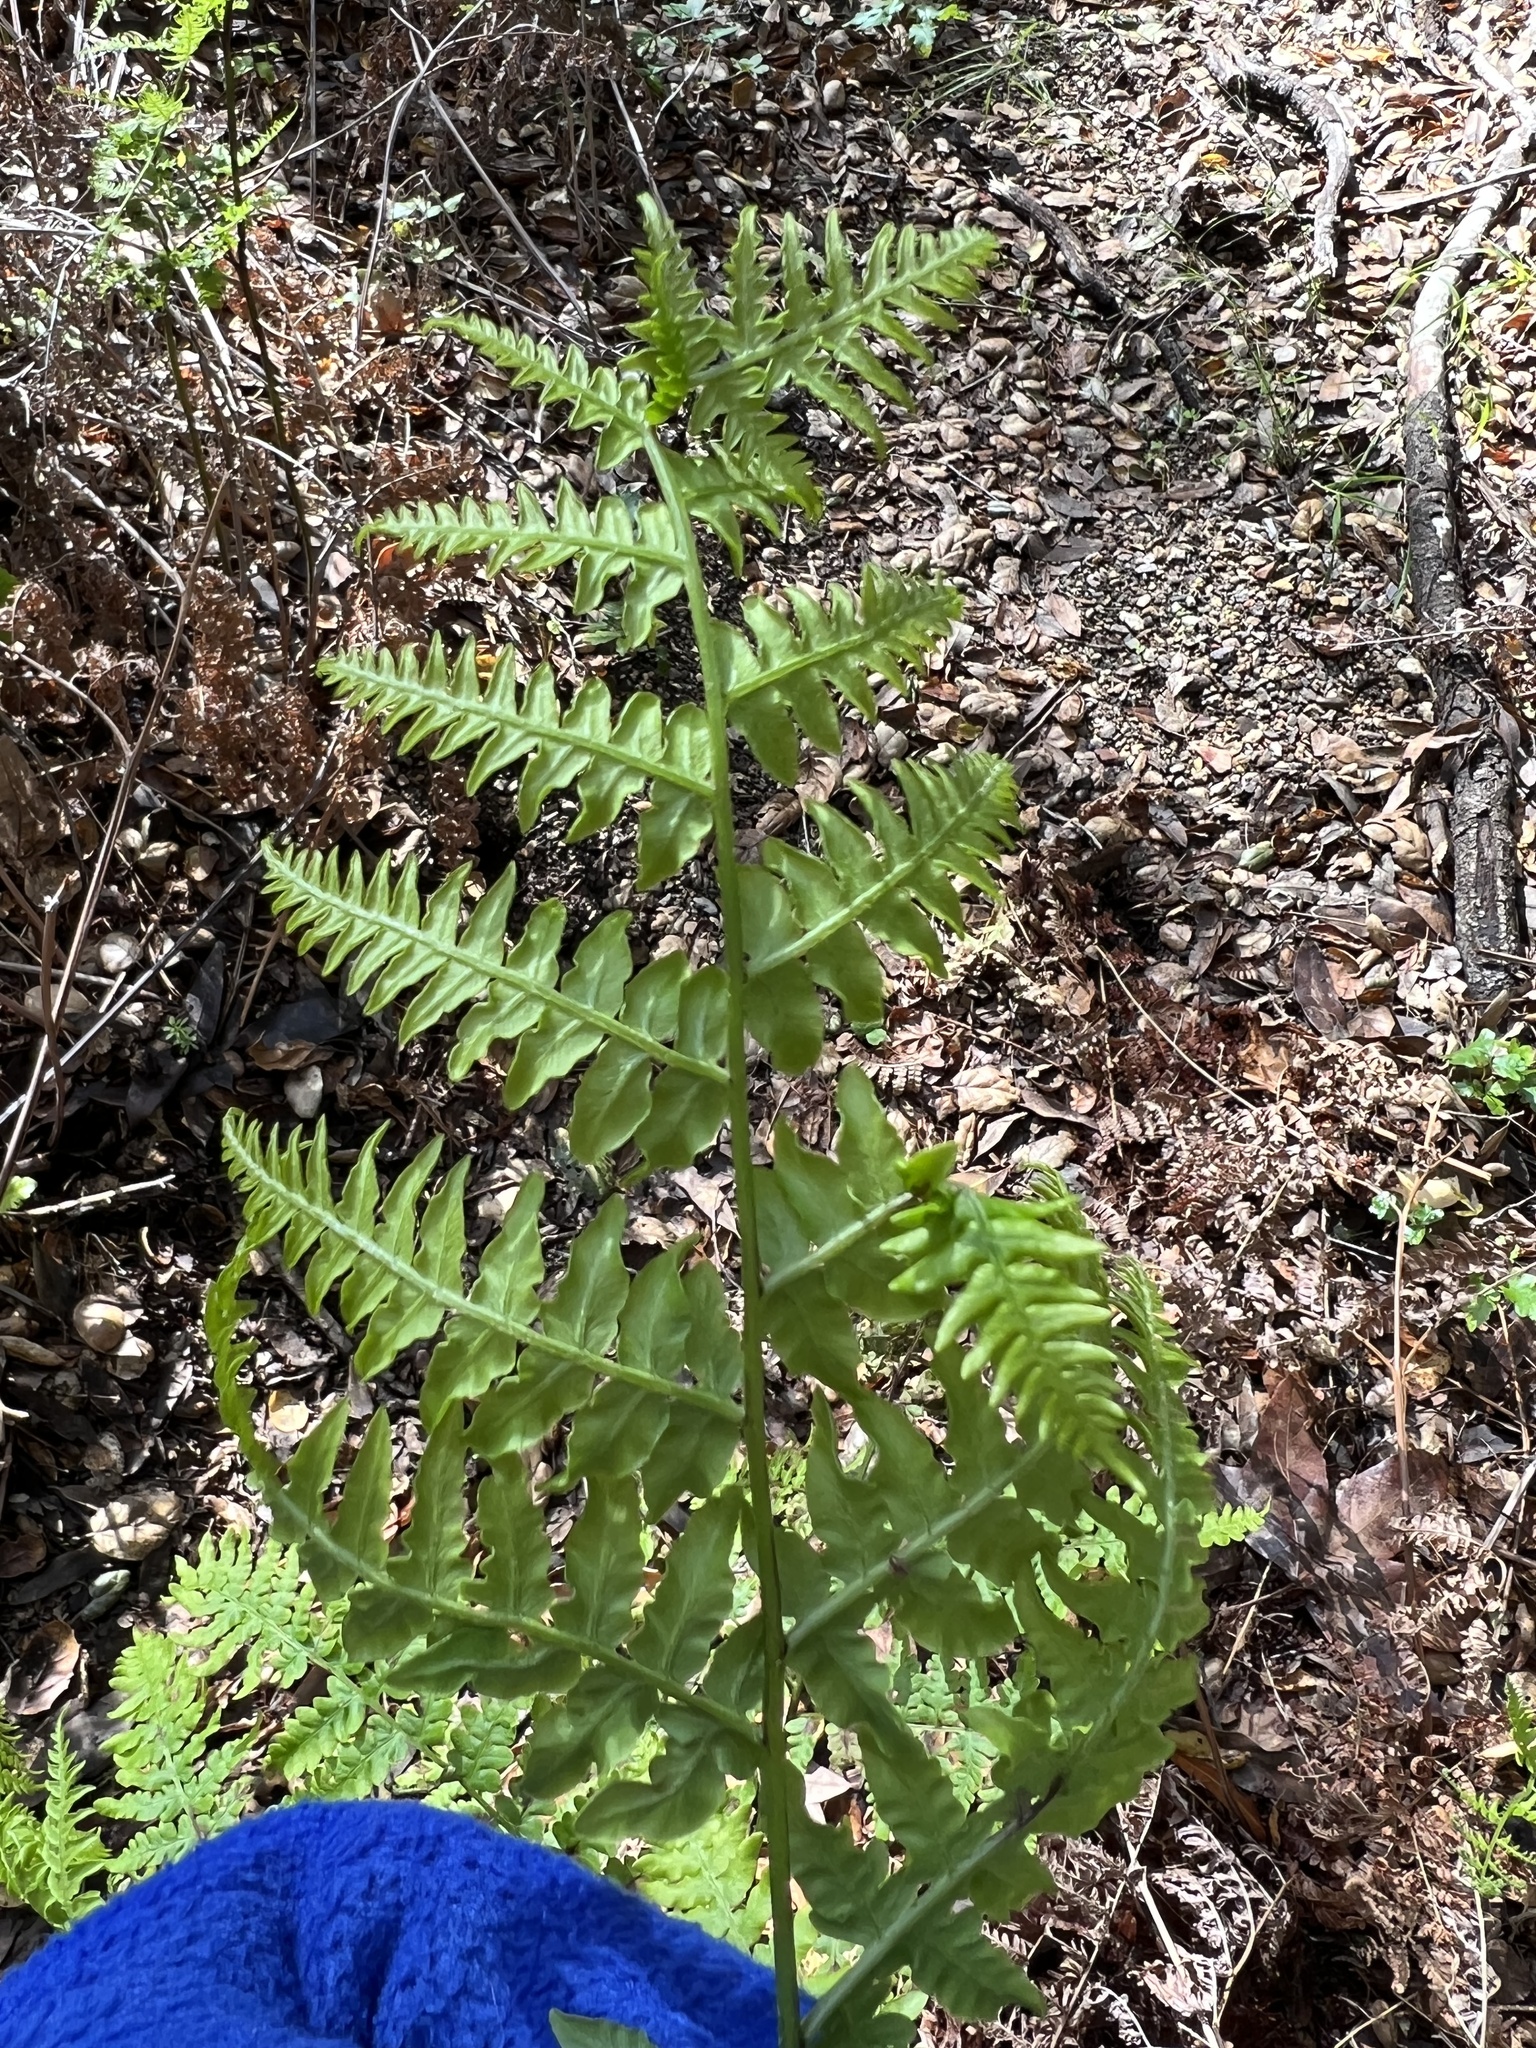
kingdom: Plantae
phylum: Tracheophyta
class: Polypodiopsida
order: Polypodiales
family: Dennstaedtiaceae
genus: Pteridium
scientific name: Pteridium aquilinum
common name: Bracken
